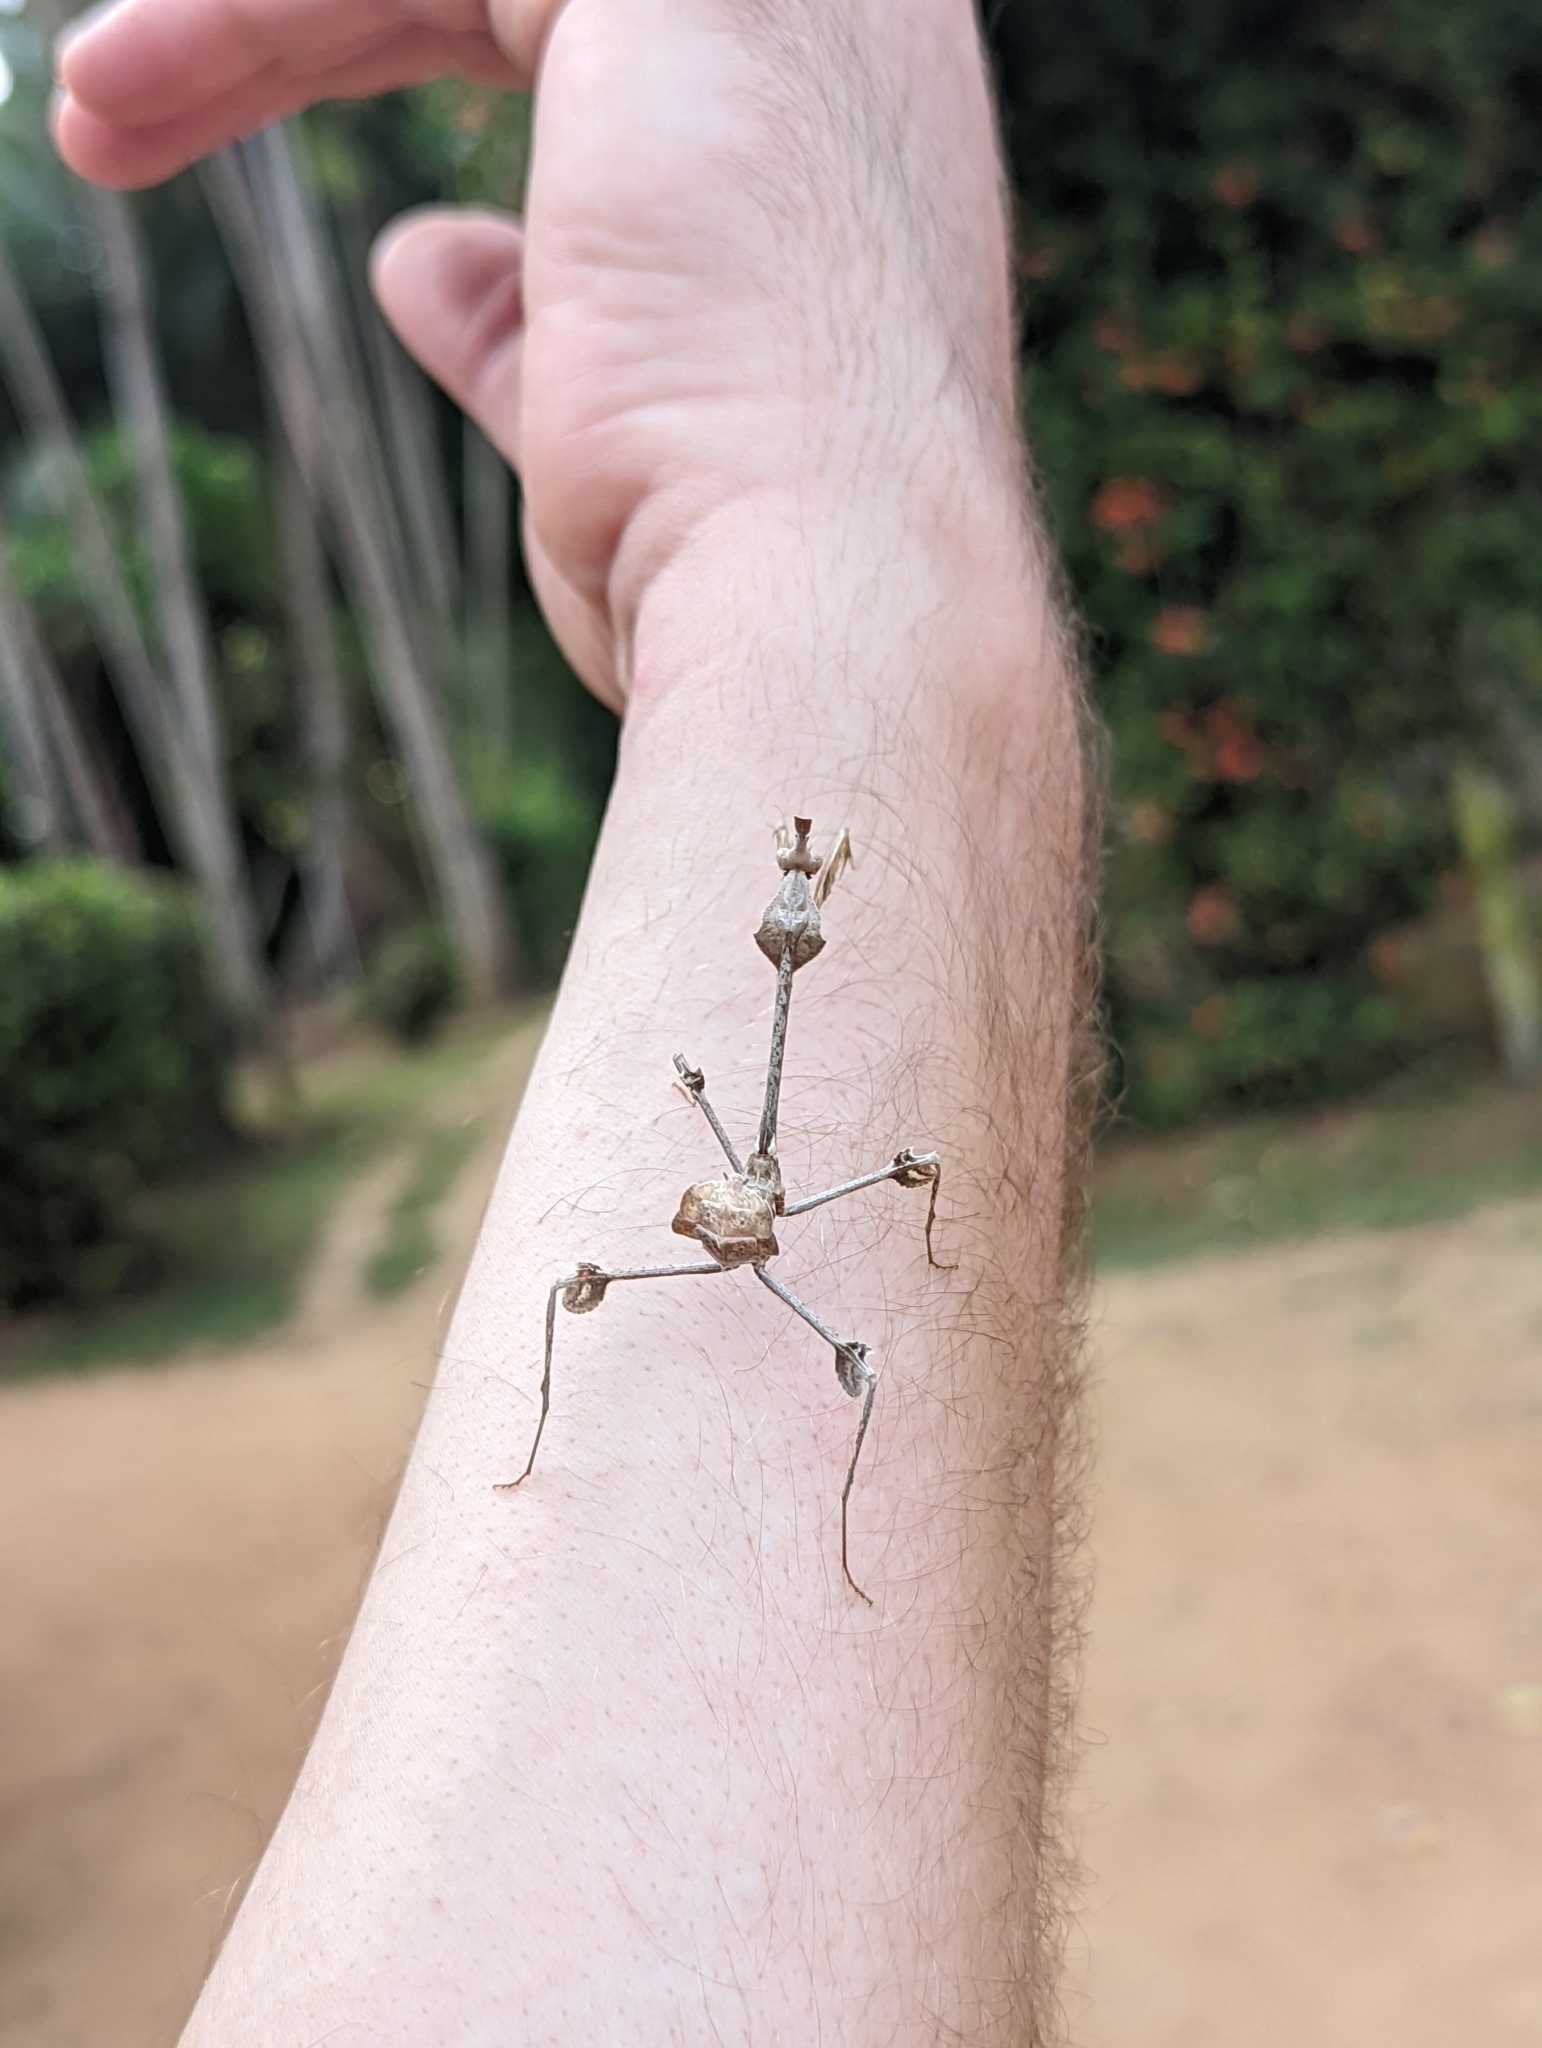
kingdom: Animalia
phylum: Arthropoda
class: Insecta
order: Mantodea
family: Empusidae
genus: Gongylus
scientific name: Gongylus gongylodes
